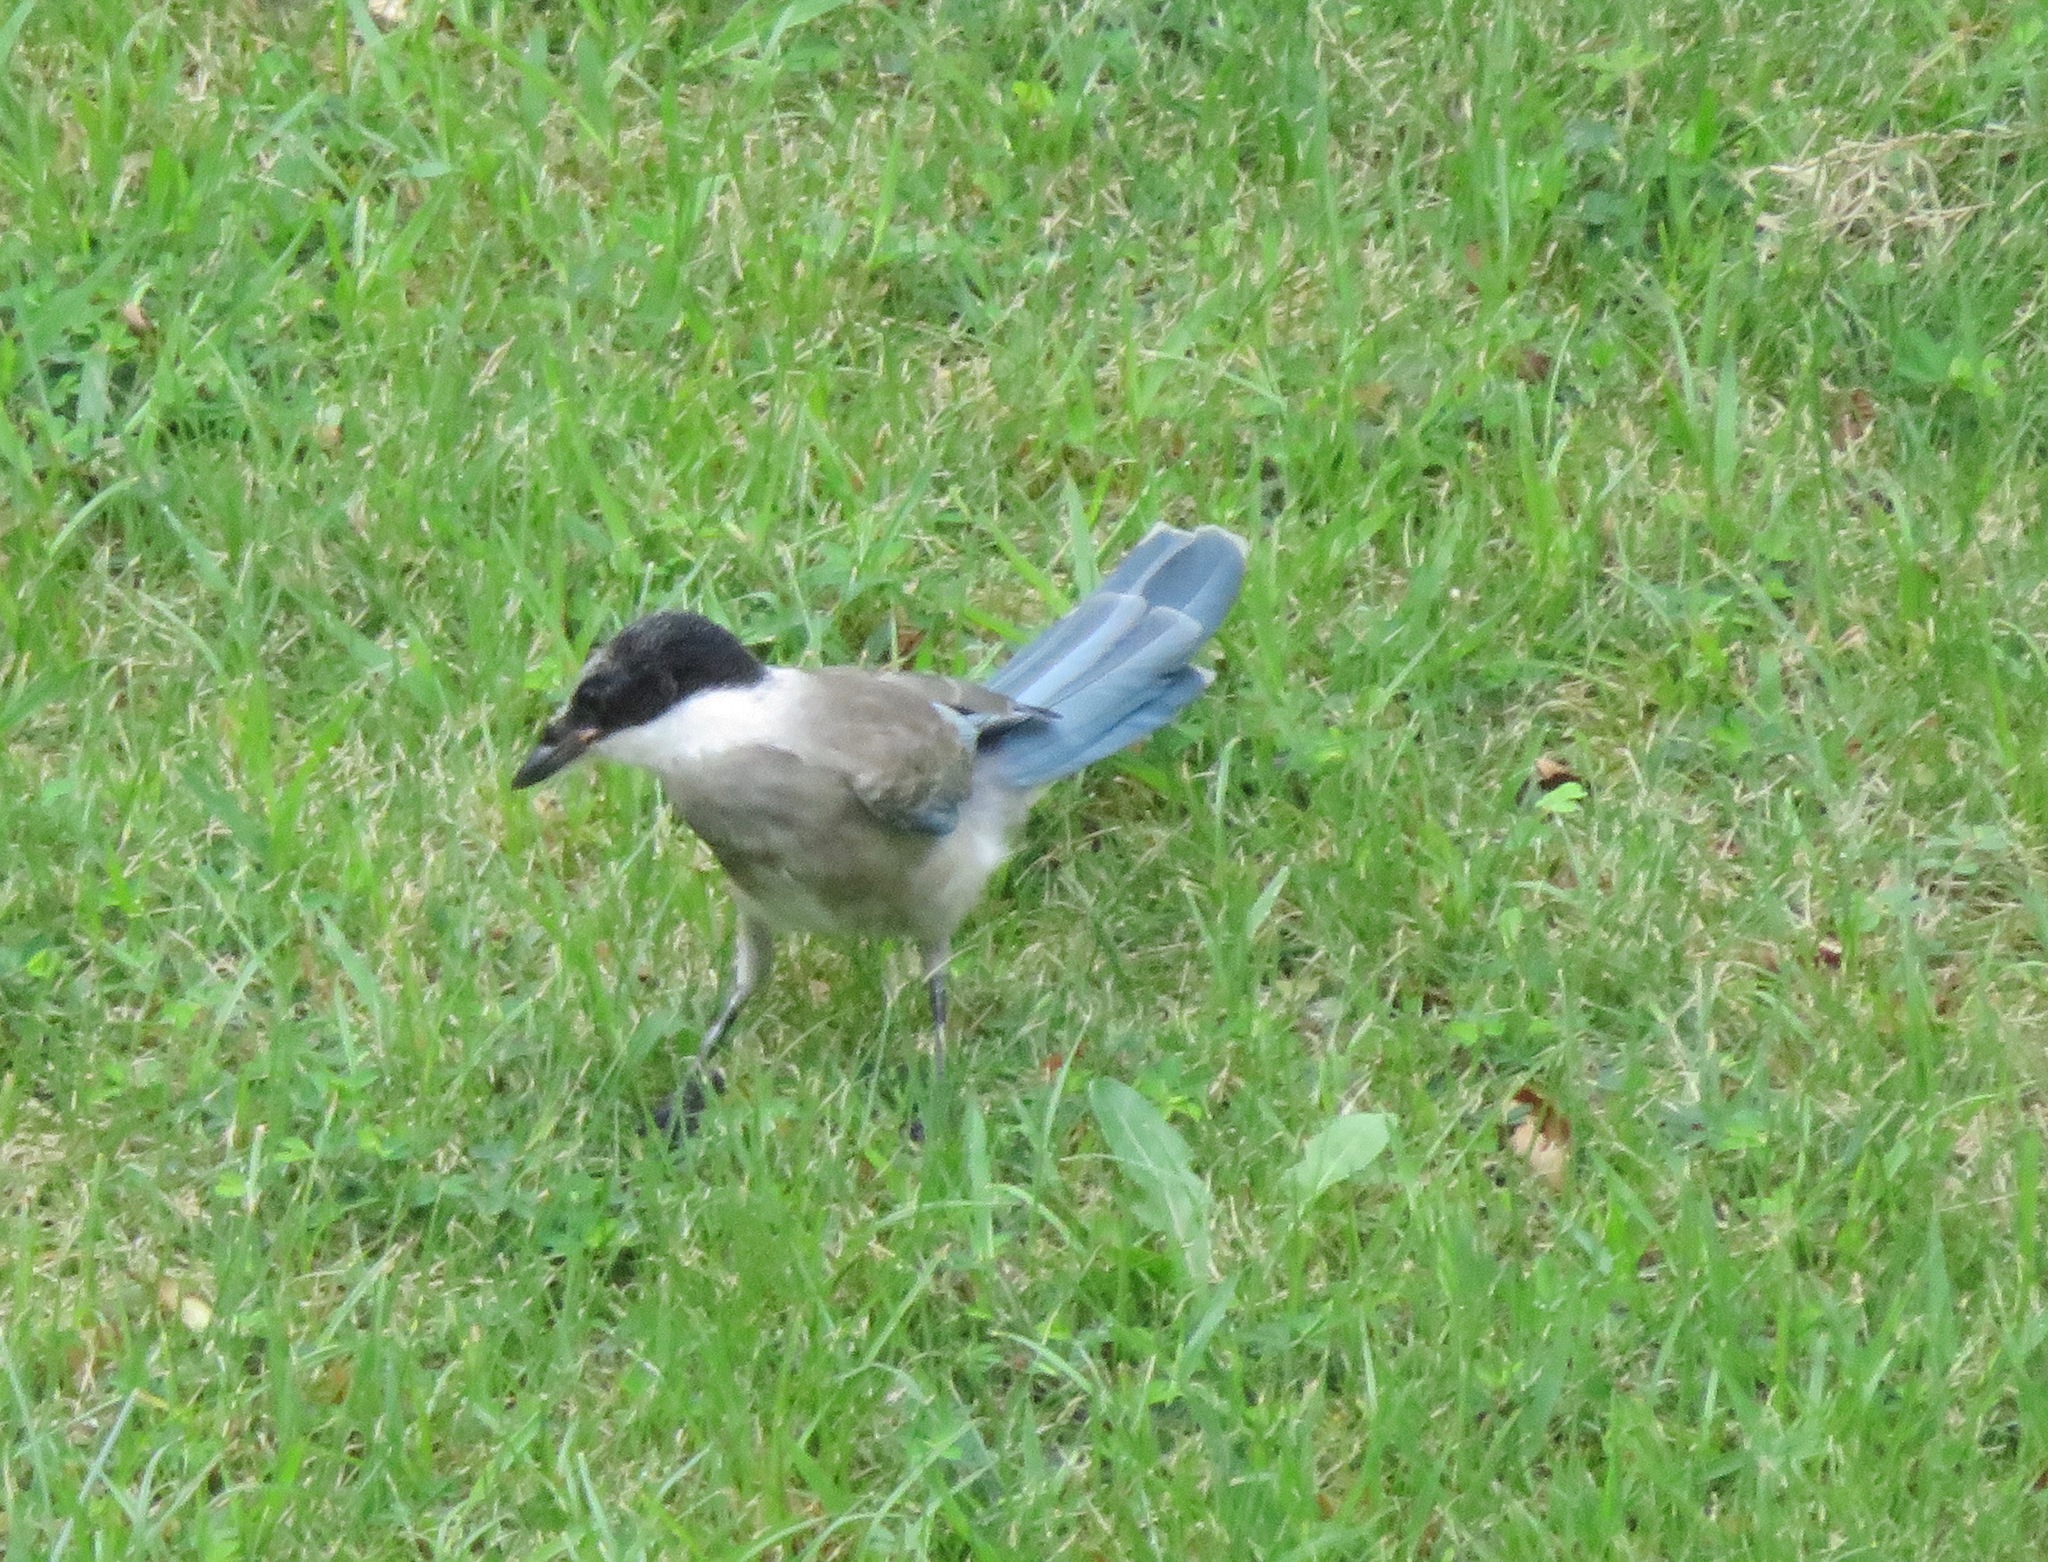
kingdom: Animalia
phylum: Chordata
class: Aves
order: Passeriformes
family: Corvidae
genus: Cyanopica
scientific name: Cyanopica cyanus
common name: Azure-winged magpie
